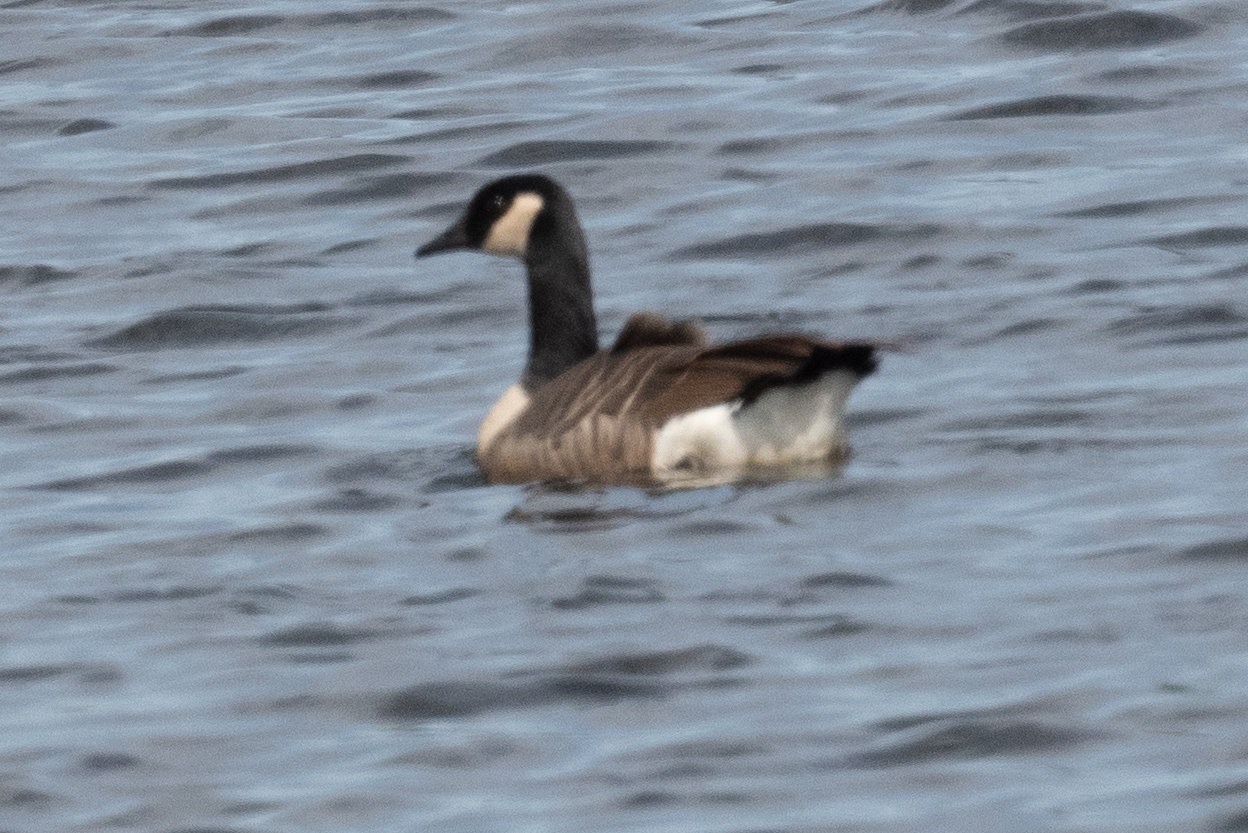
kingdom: Animalia
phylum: Chordata
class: Aves
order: Anseriformes
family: Anatidae
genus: Branta
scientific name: Branta canadensis
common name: Canada goose
